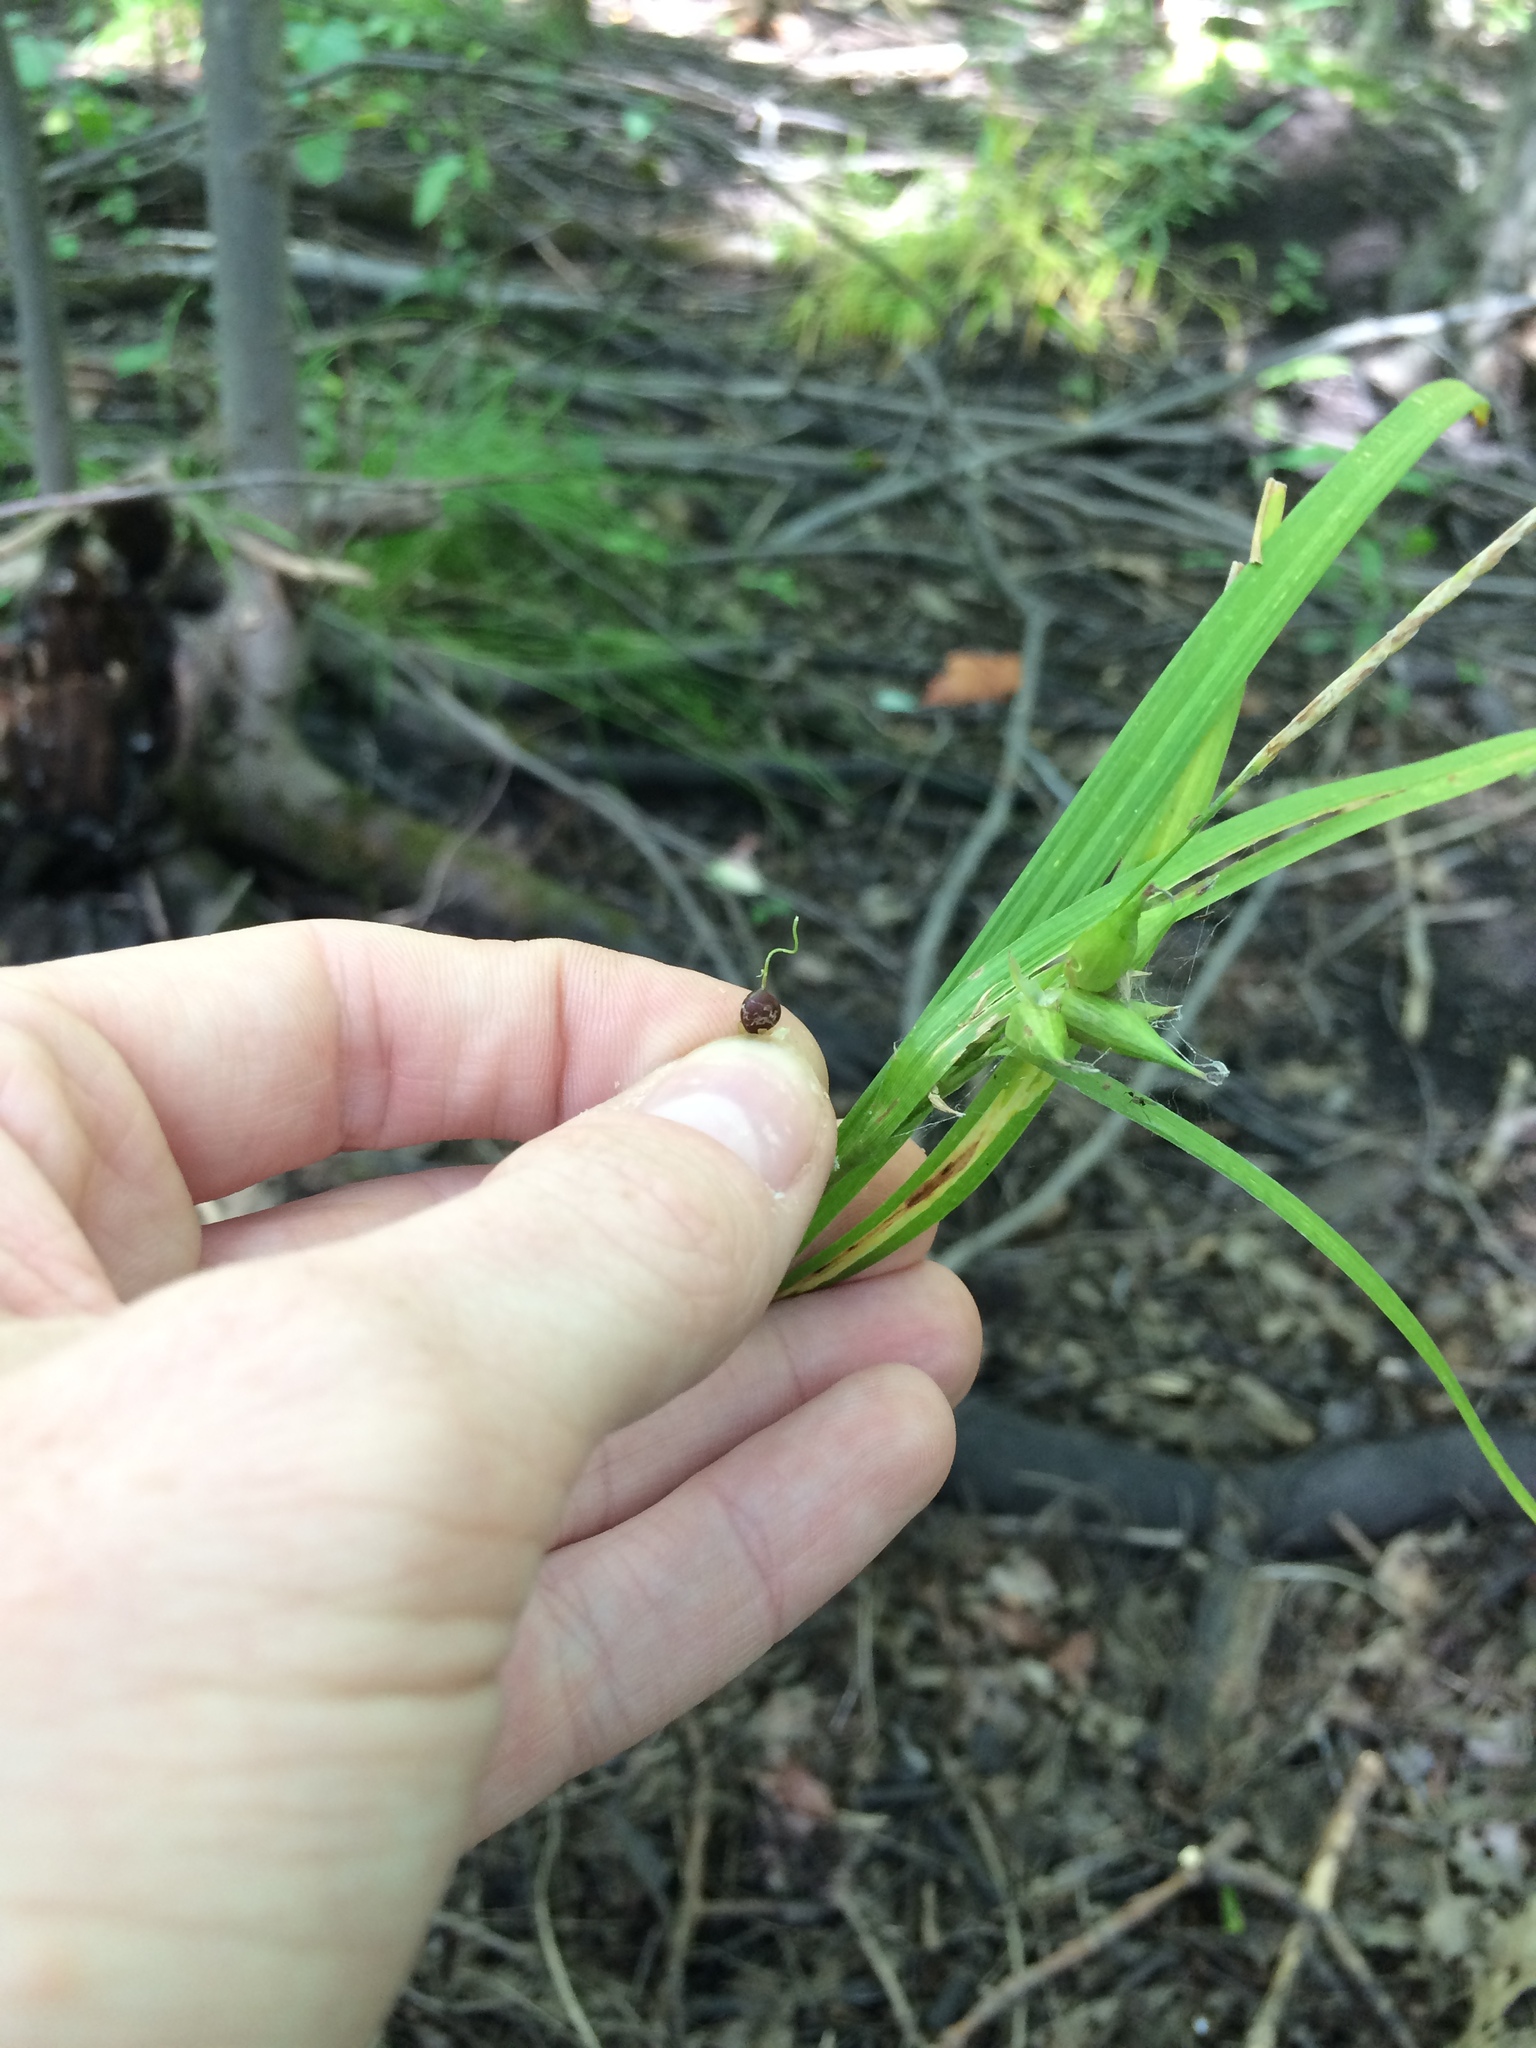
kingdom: Plantae
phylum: Tracheophyta
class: Liliopsida
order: Poales
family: Cyperaceae
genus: Carex
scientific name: Carex intumescens
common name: Greater bladder sedge
